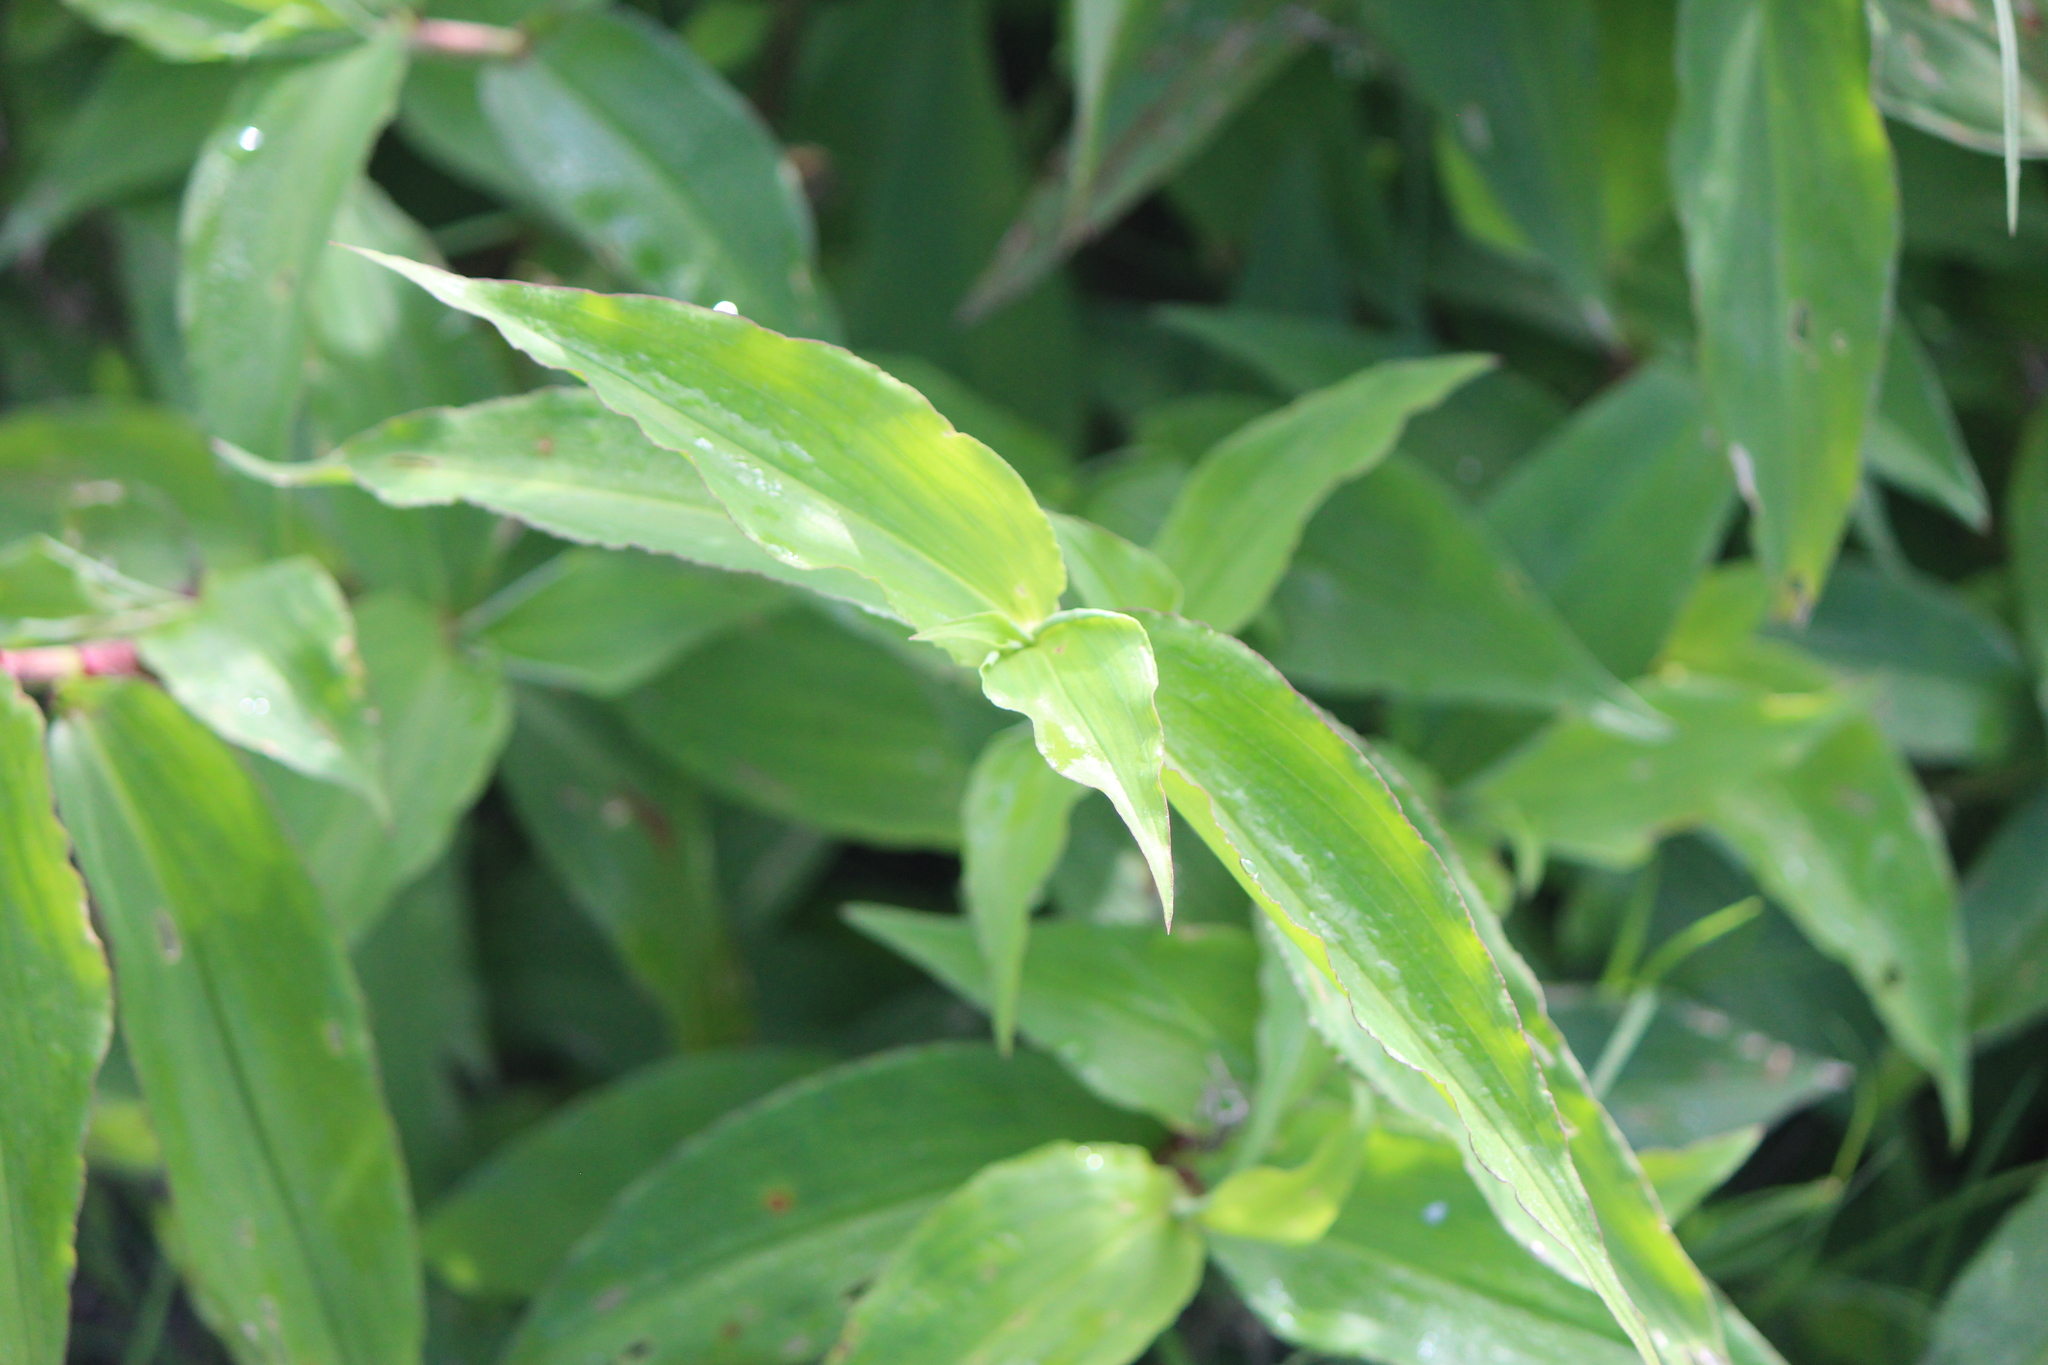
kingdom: Plantae
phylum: Tracheophyta
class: Liliopsida
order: Commelinales
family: Commelinaceae
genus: Commelina
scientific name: Commelina erecta
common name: Blousel blommetjie
